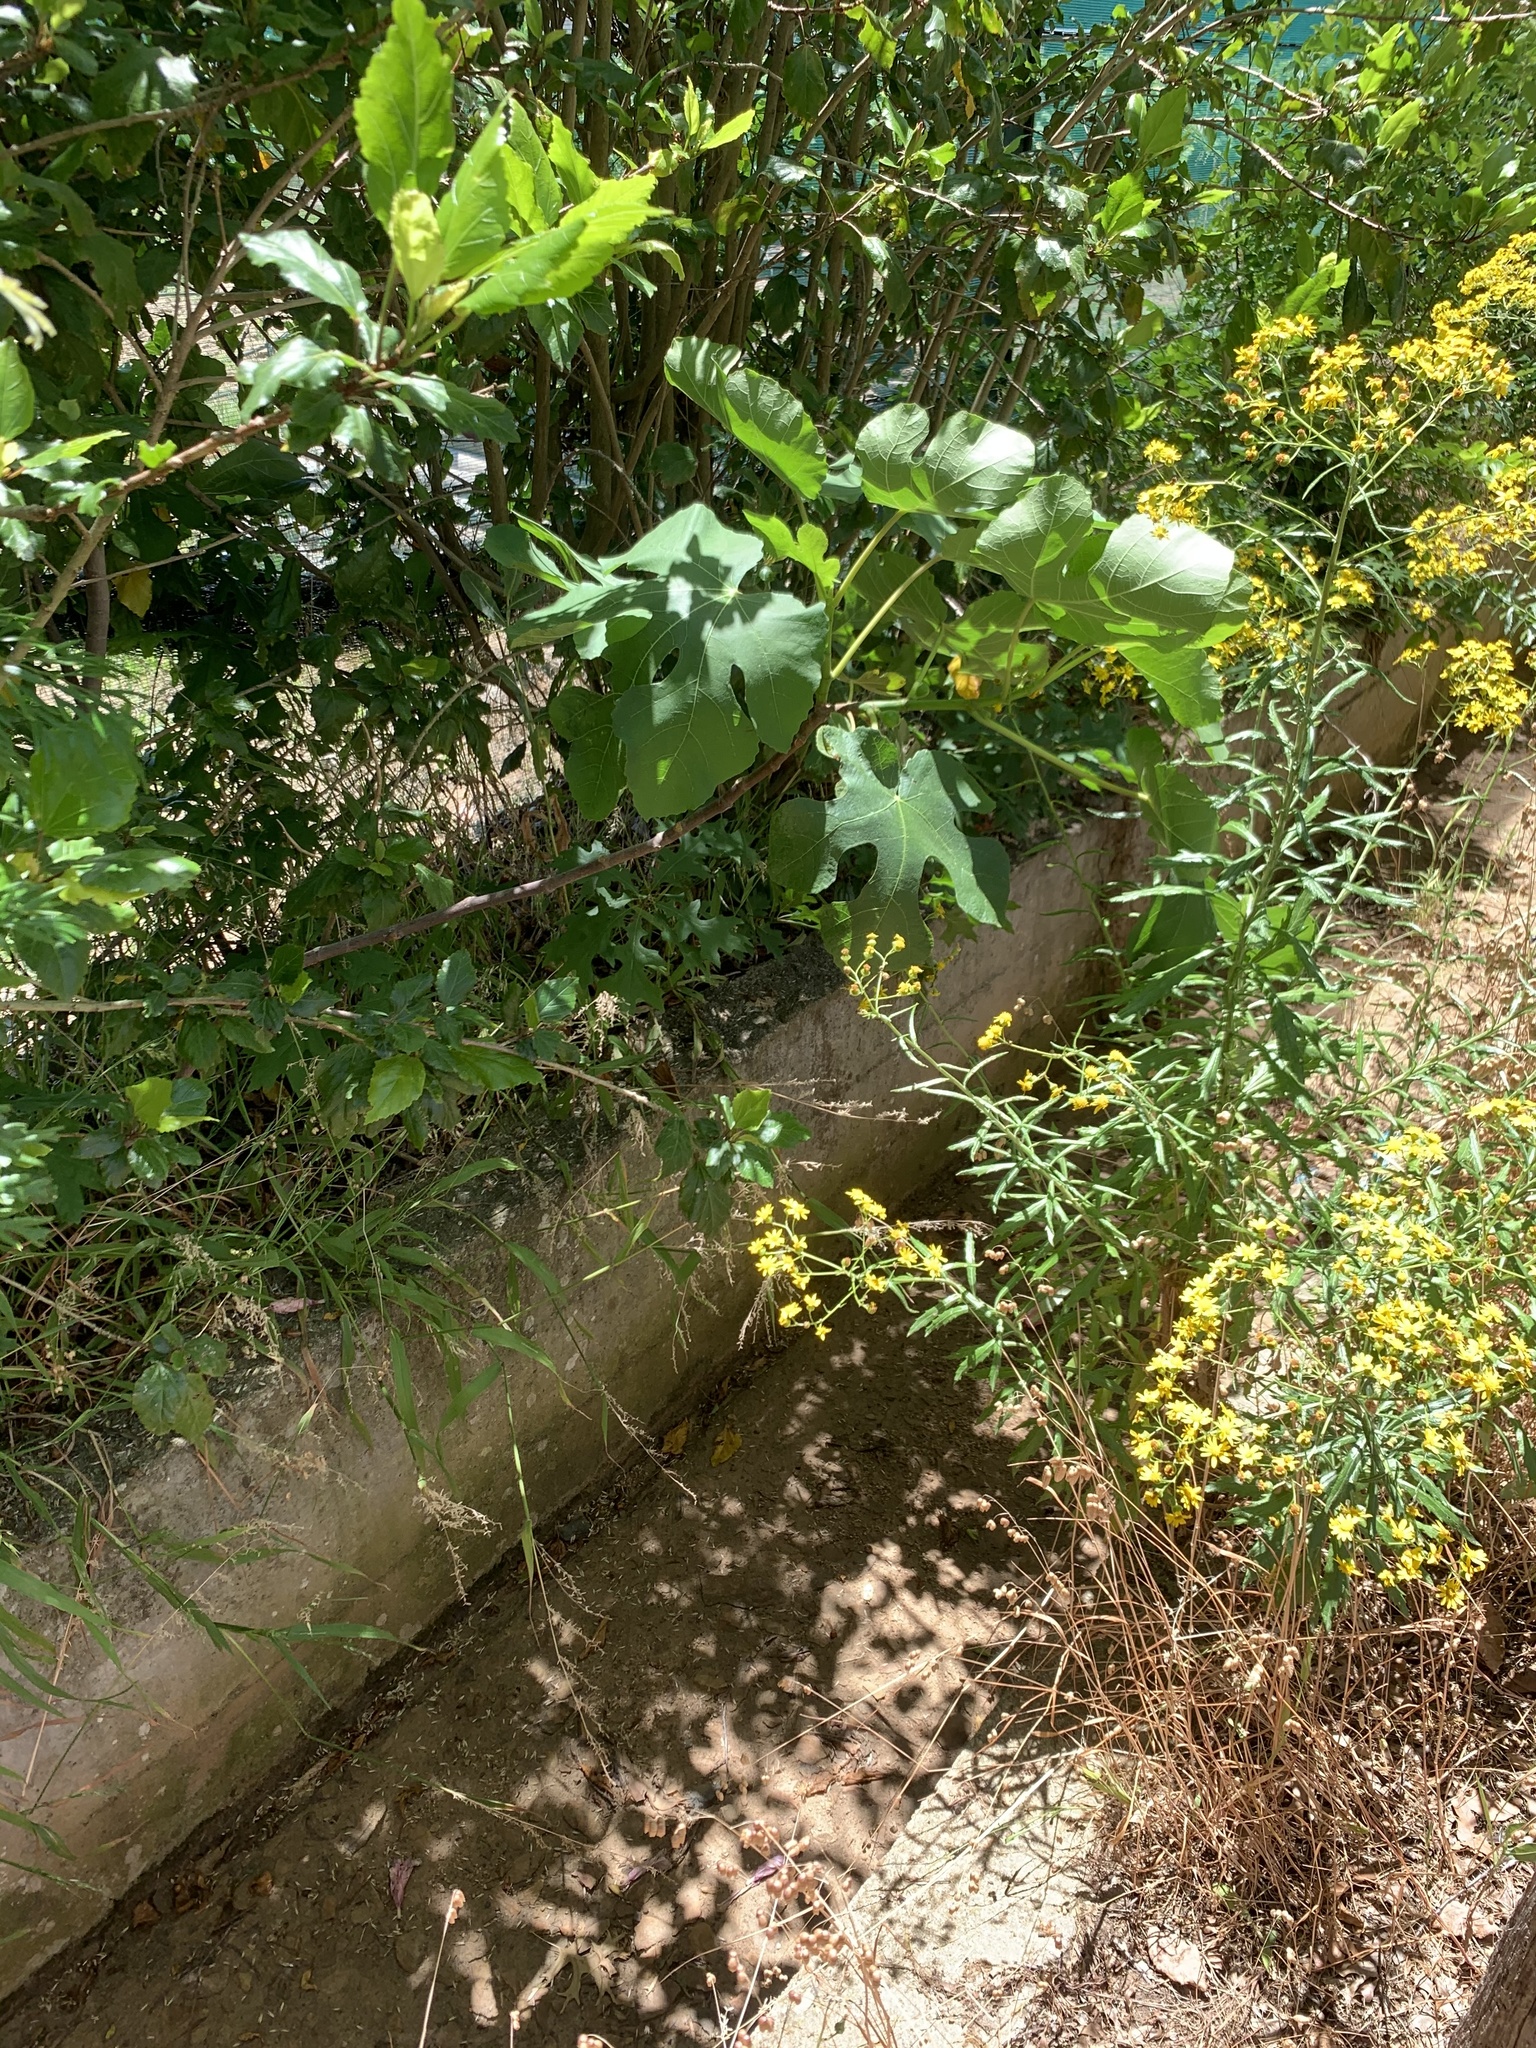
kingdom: Plantae
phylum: Tracheophyta
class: Magnoliopsida
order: Rosales
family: Moraceae
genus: Ficus
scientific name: Ficus carica
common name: Fig
